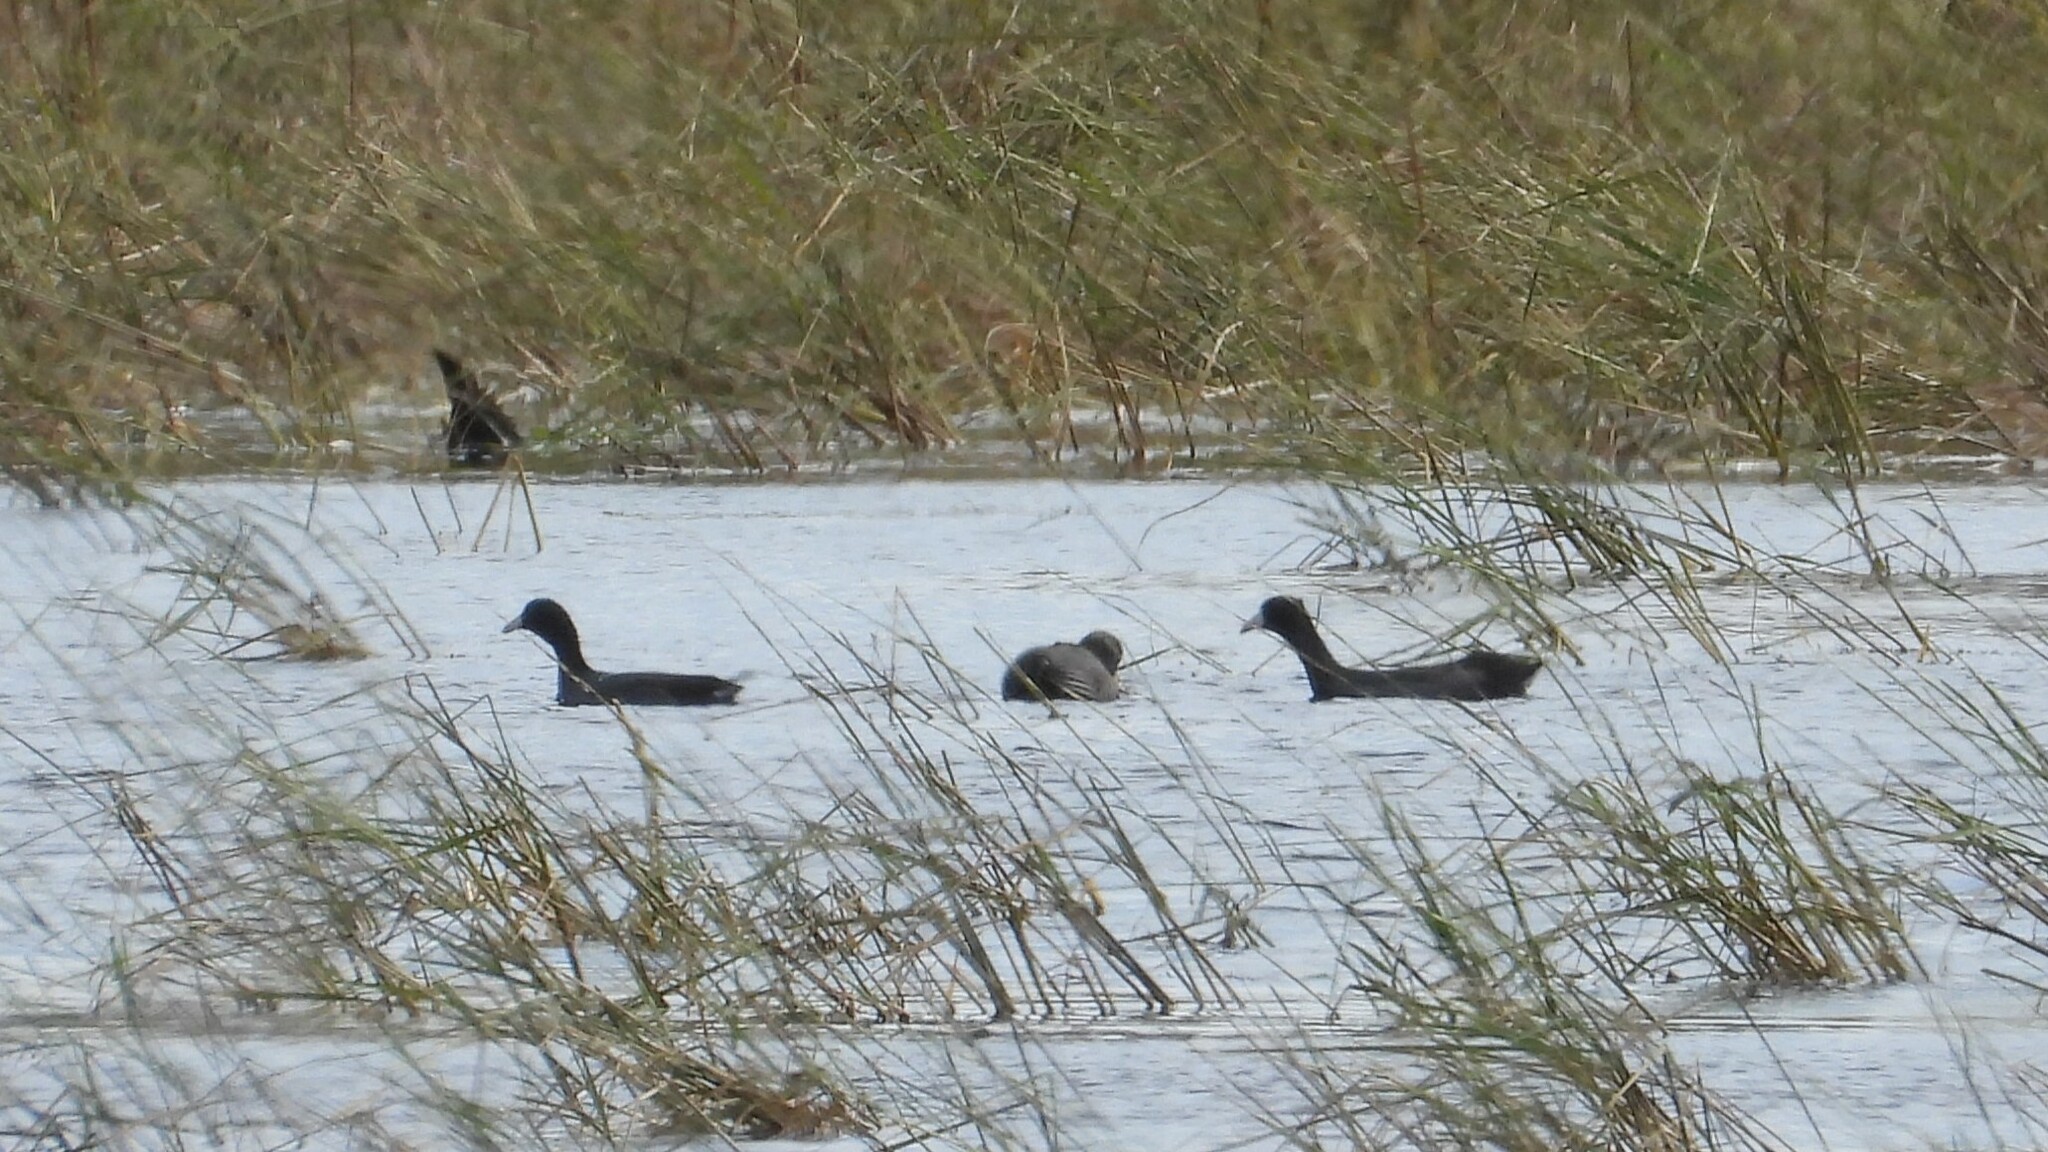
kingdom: Animalia
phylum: Chordata
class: Aves
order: Gruiformes
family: Rallidae
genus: Fulica
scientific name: Fulica americana
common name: American coot
